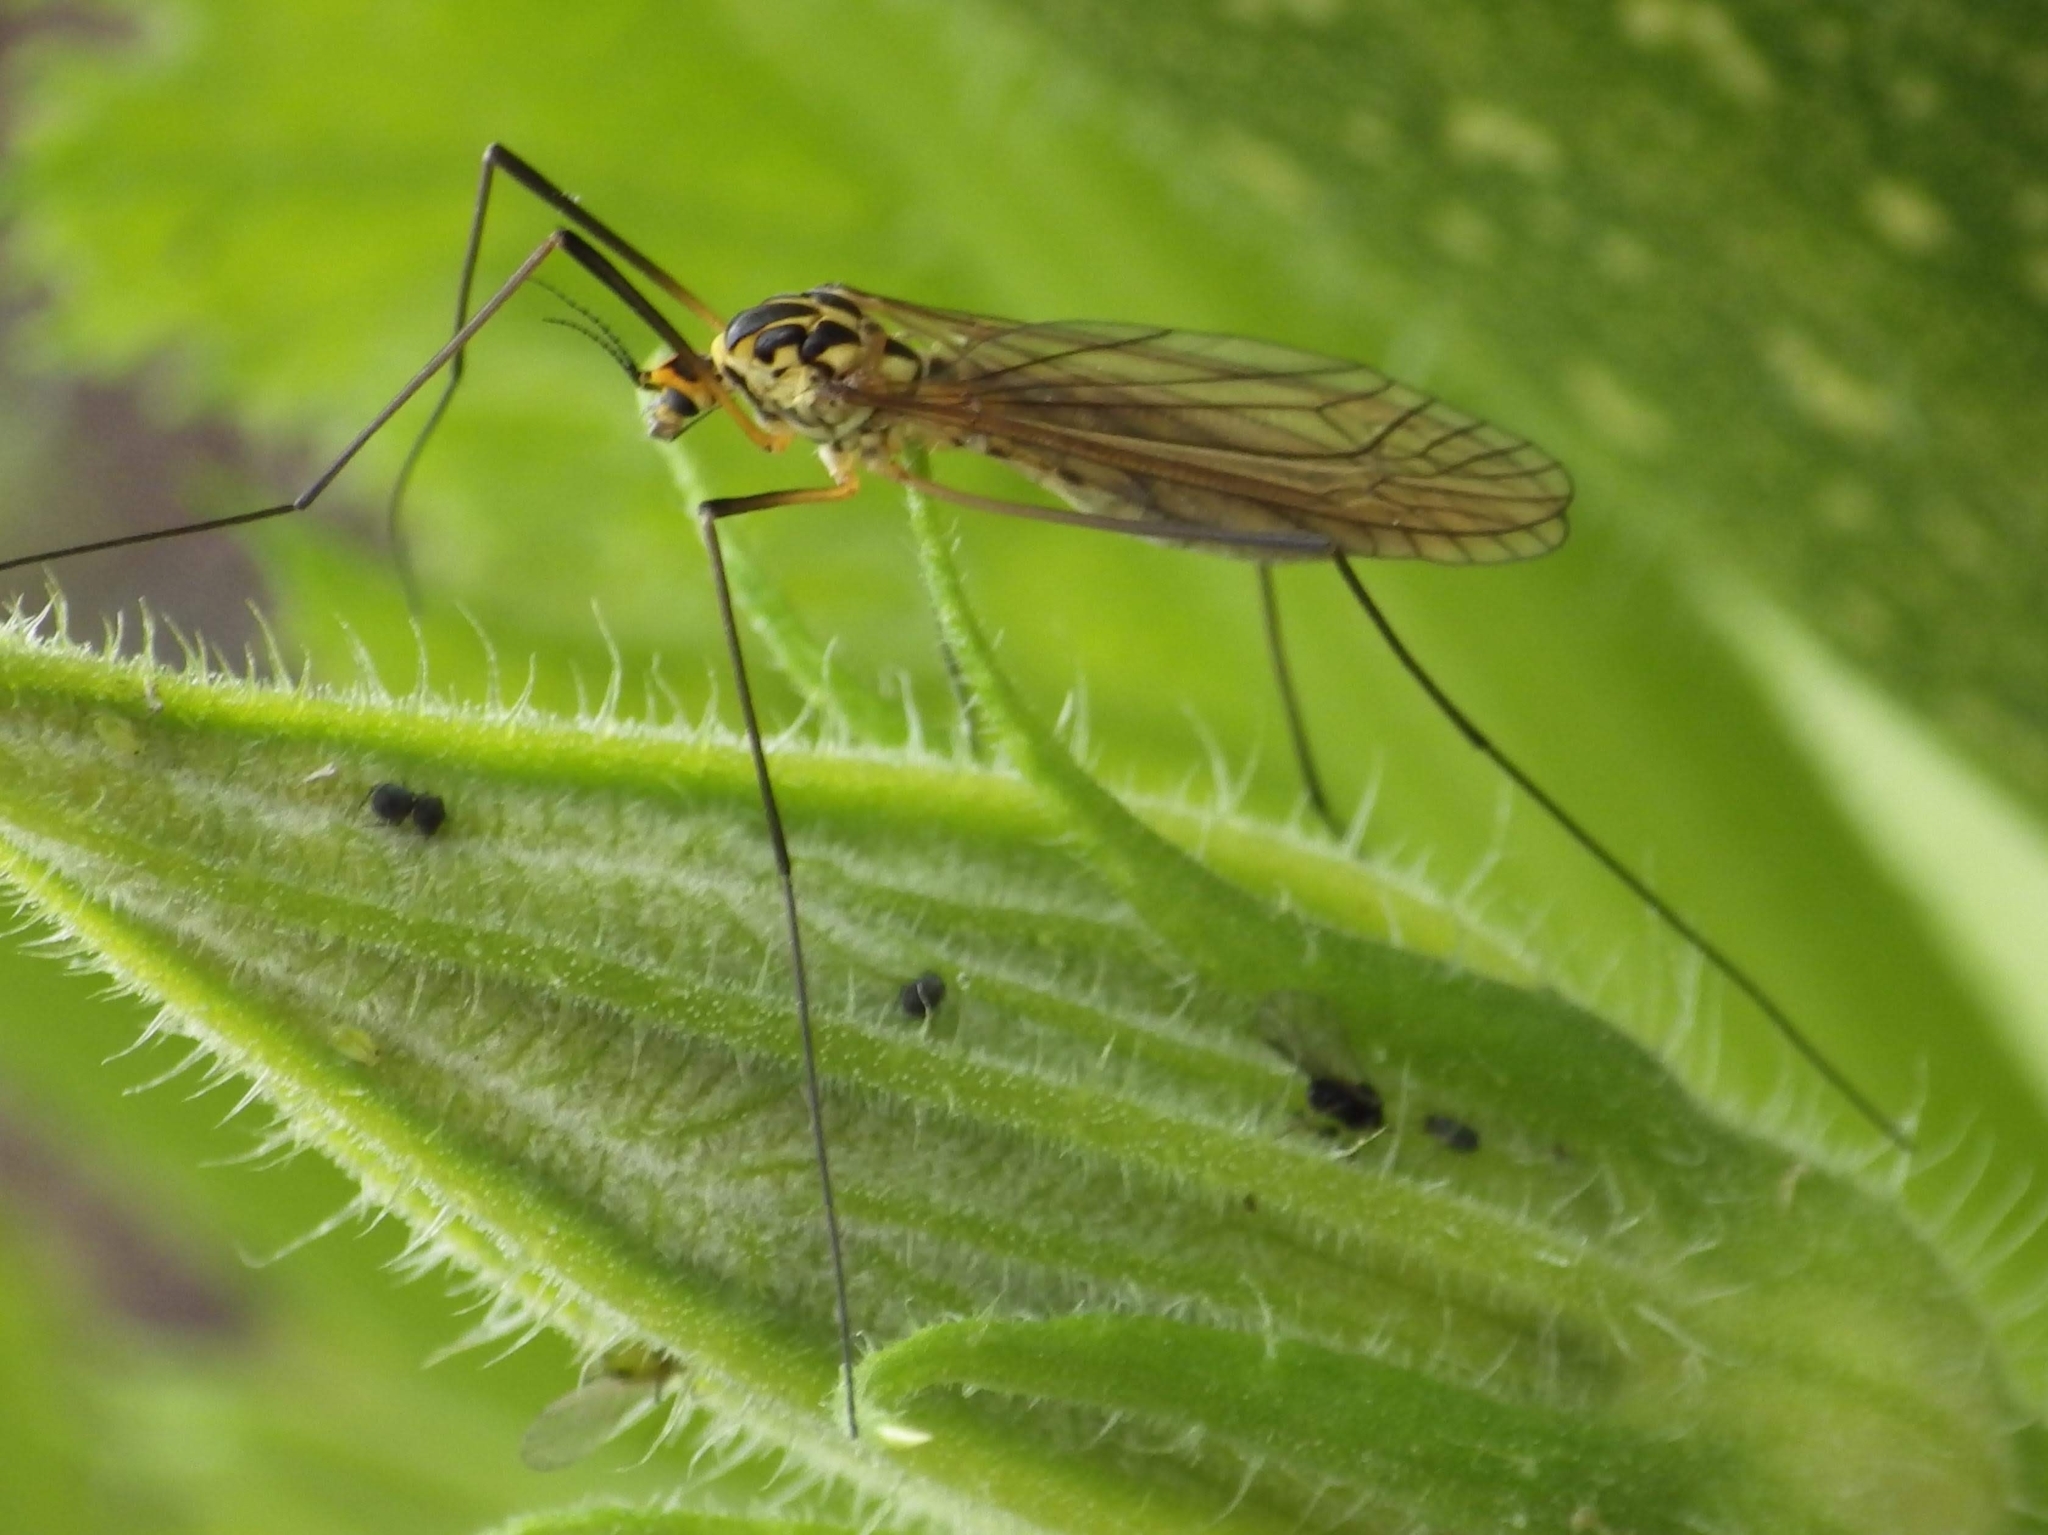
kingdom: Animalia
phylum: Arthropoda
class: Insecta
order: Diptera
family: Tipulidae
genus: Nephrotoma
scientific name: Nephrotoma flavescens
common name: Tiger cranefly
